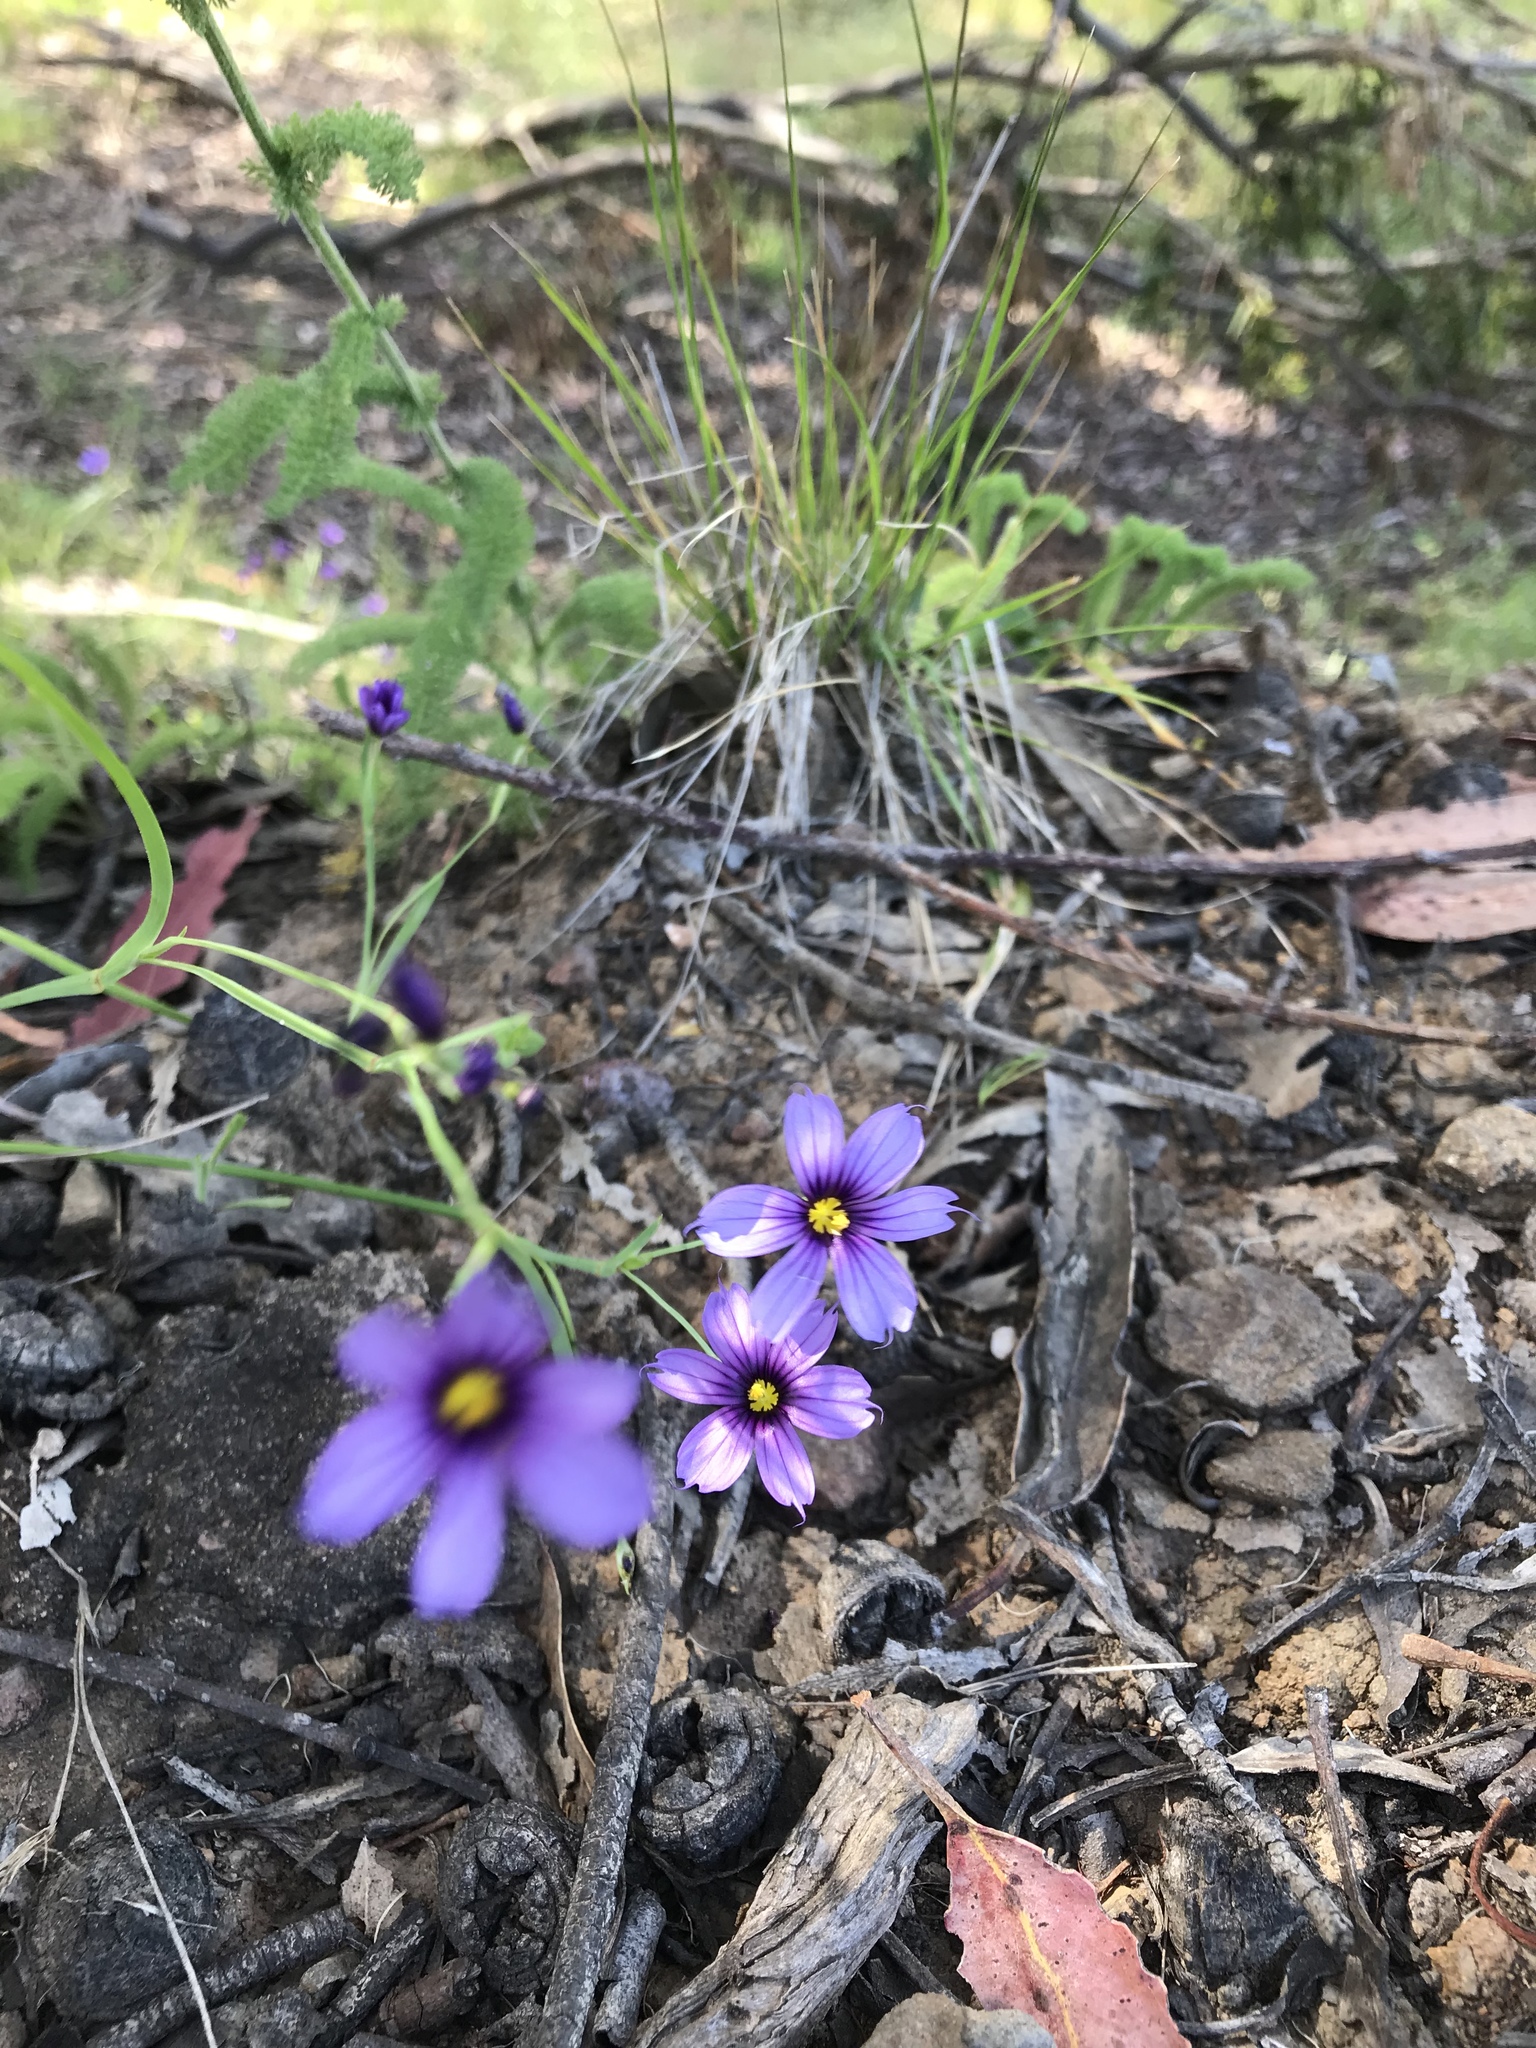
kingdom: Plantae
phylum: Tracheophyta
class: Liliopsida
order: Asparagales
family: Iridaceae
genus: Sisyrinchium
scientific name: Sisyrinchium bellum
